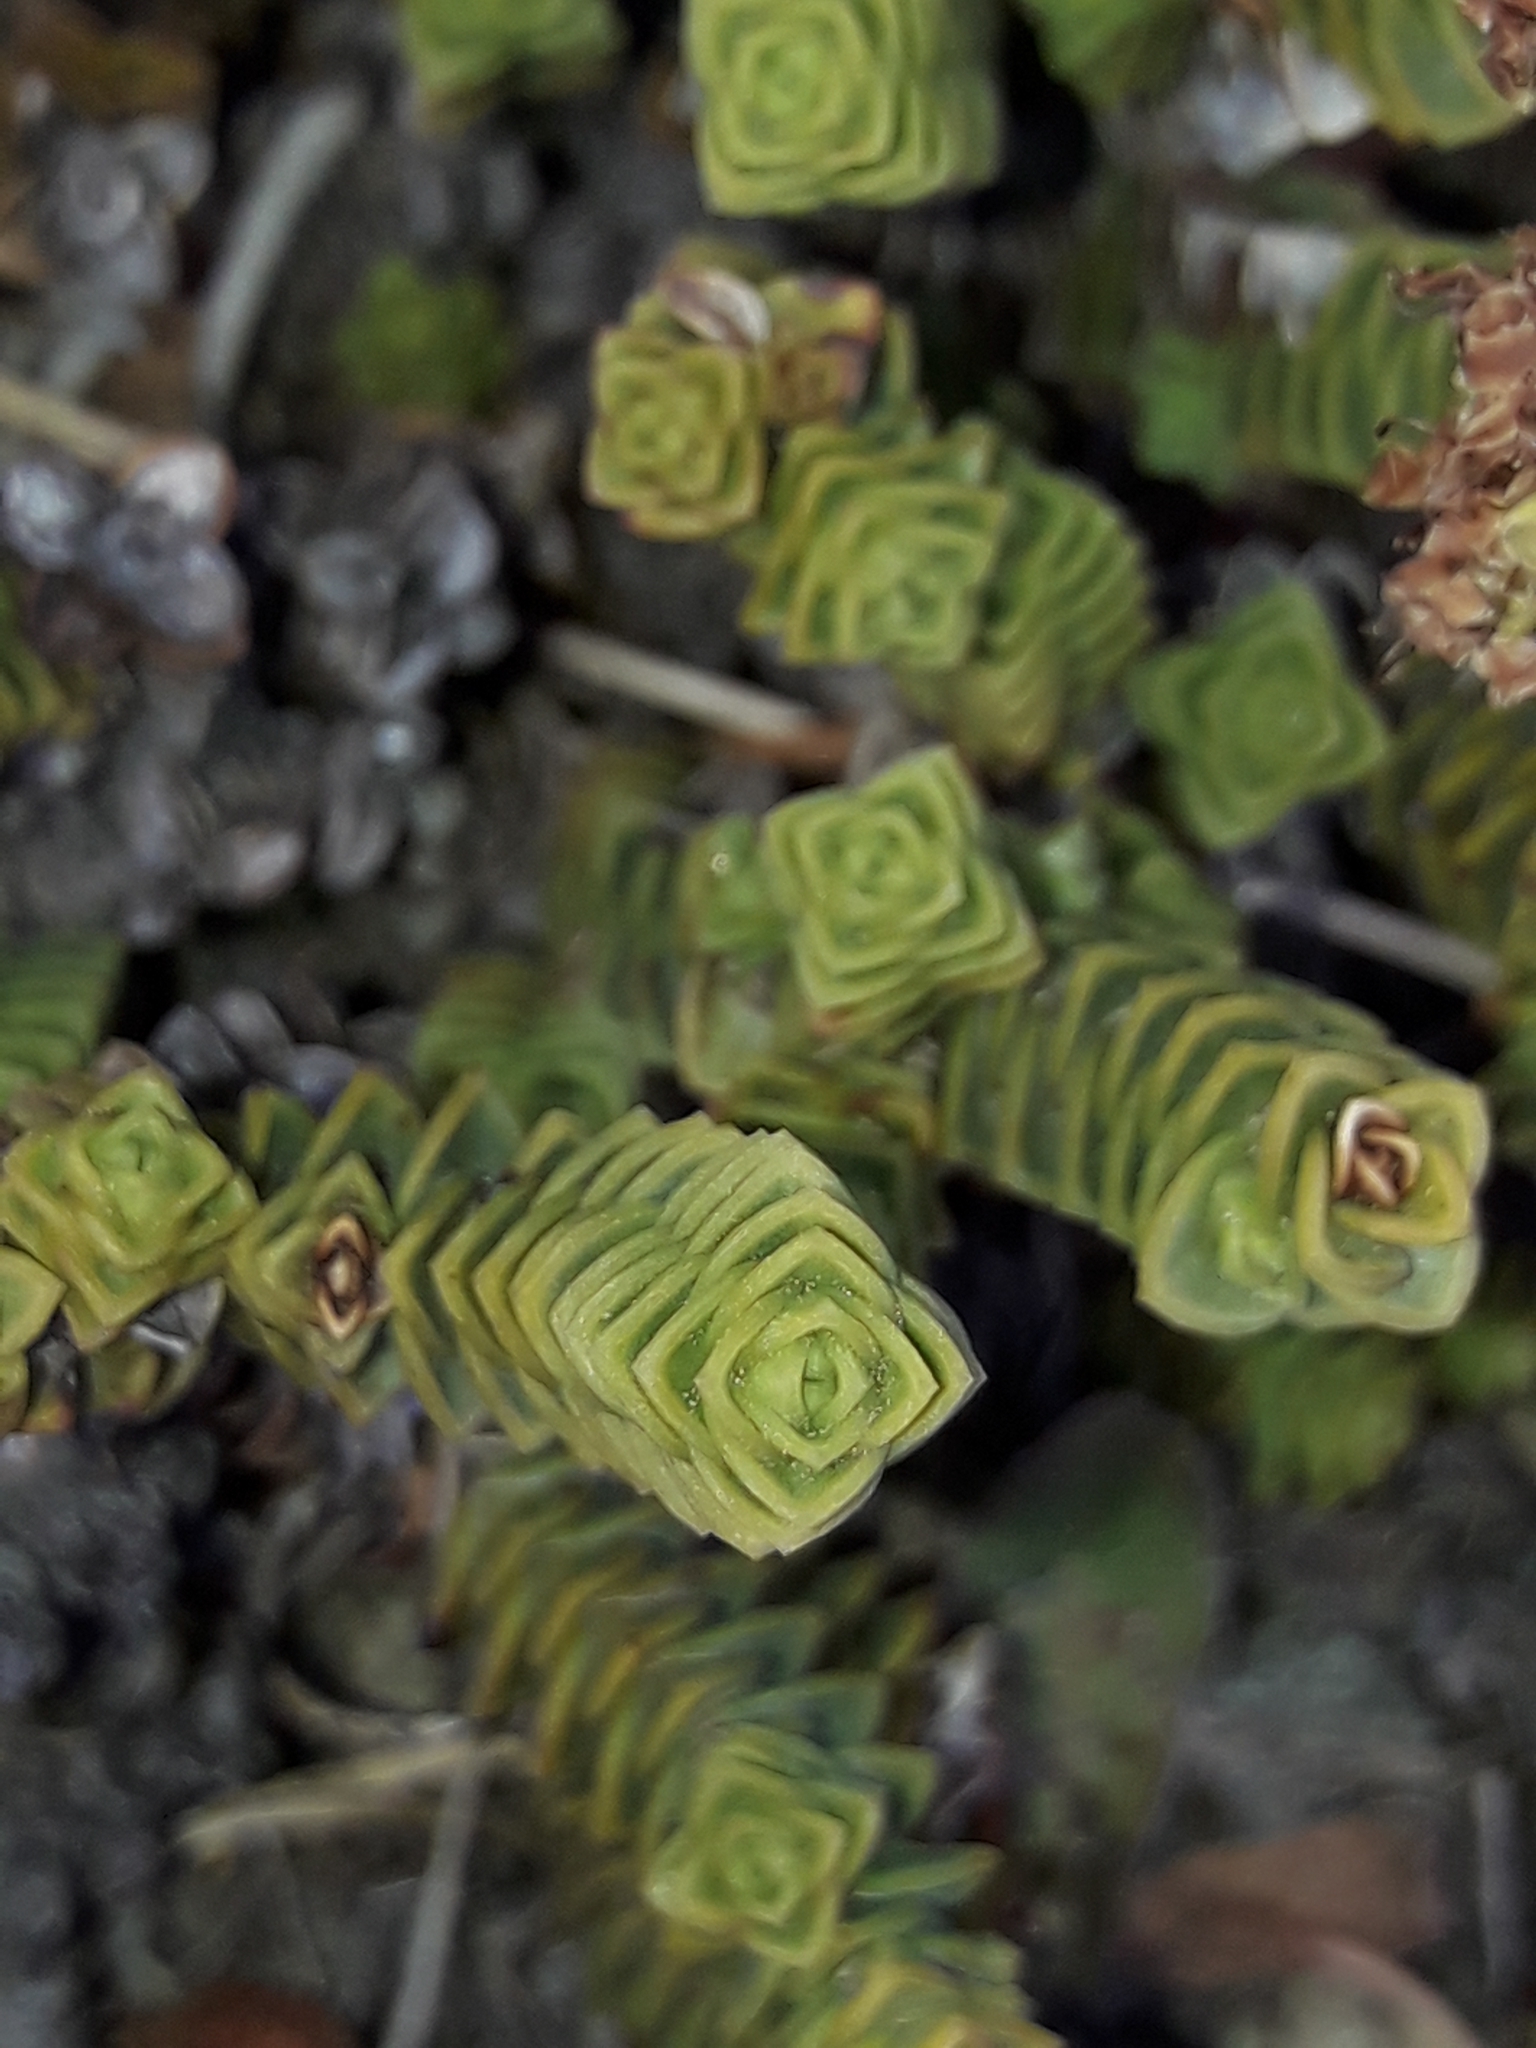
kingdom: Plantae
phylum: Tracheophyta
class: Magnoliopsida
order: Lamiales
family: Plantaginaceae
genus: Veronica
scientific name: Veronica epacridea
